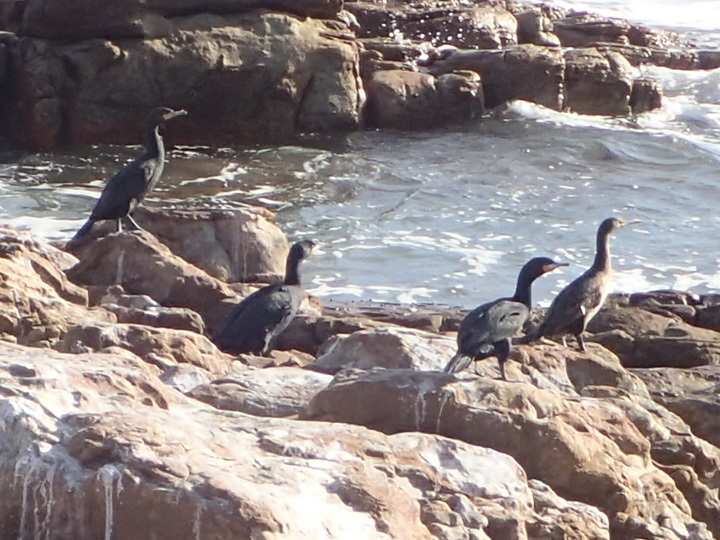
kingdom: Animalia
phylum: Chordata
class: Aves
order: Suliformes
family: Phalacrocoracidae
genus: Phalacrocorax
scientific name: Phalacrocorax capensis
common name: Cape cormorant
